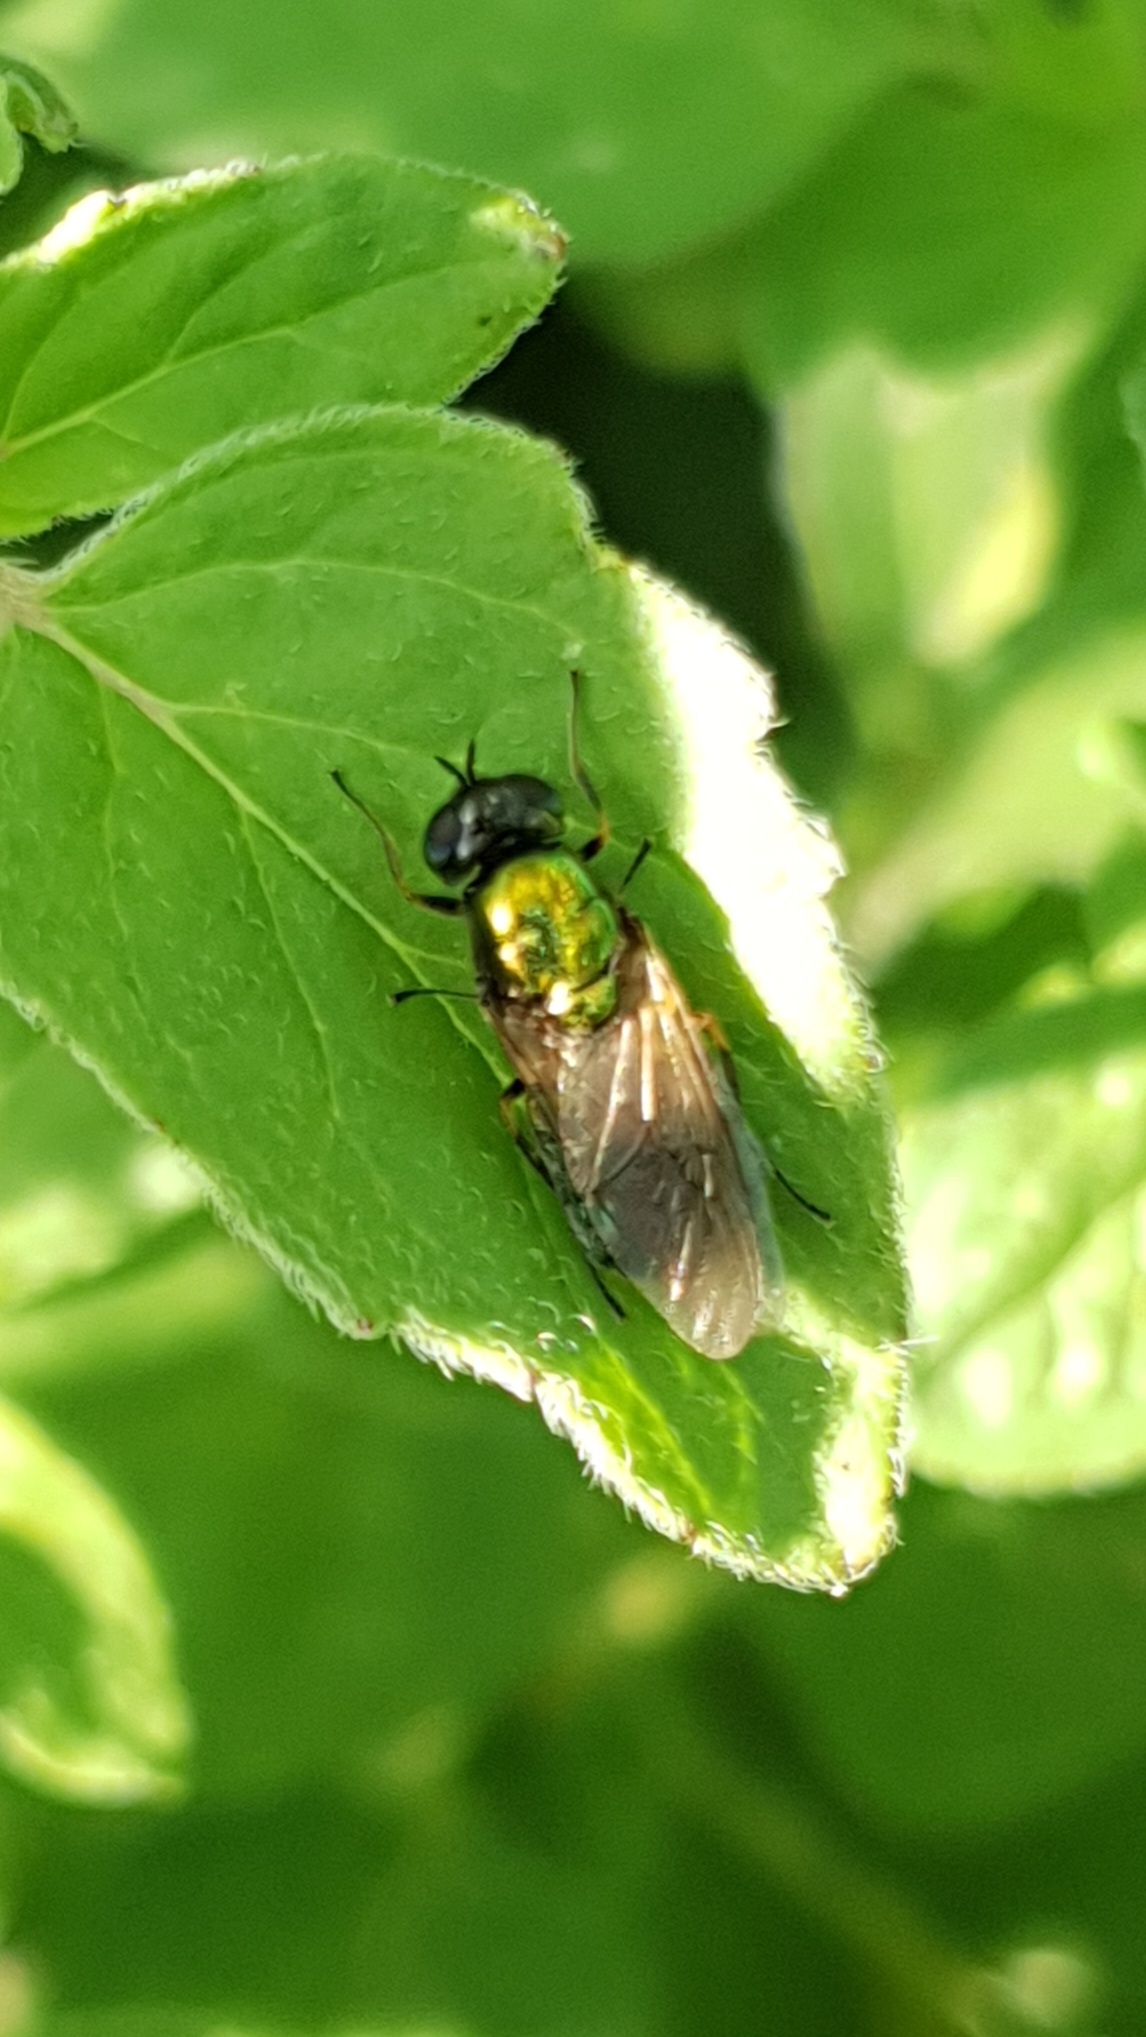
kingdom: Animalia
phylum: Arthropoda
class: Insecta
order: Diptera
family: Stratiomyidae
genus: Chloromyia
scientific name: Chloromyia formosa
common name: Soldier fly
